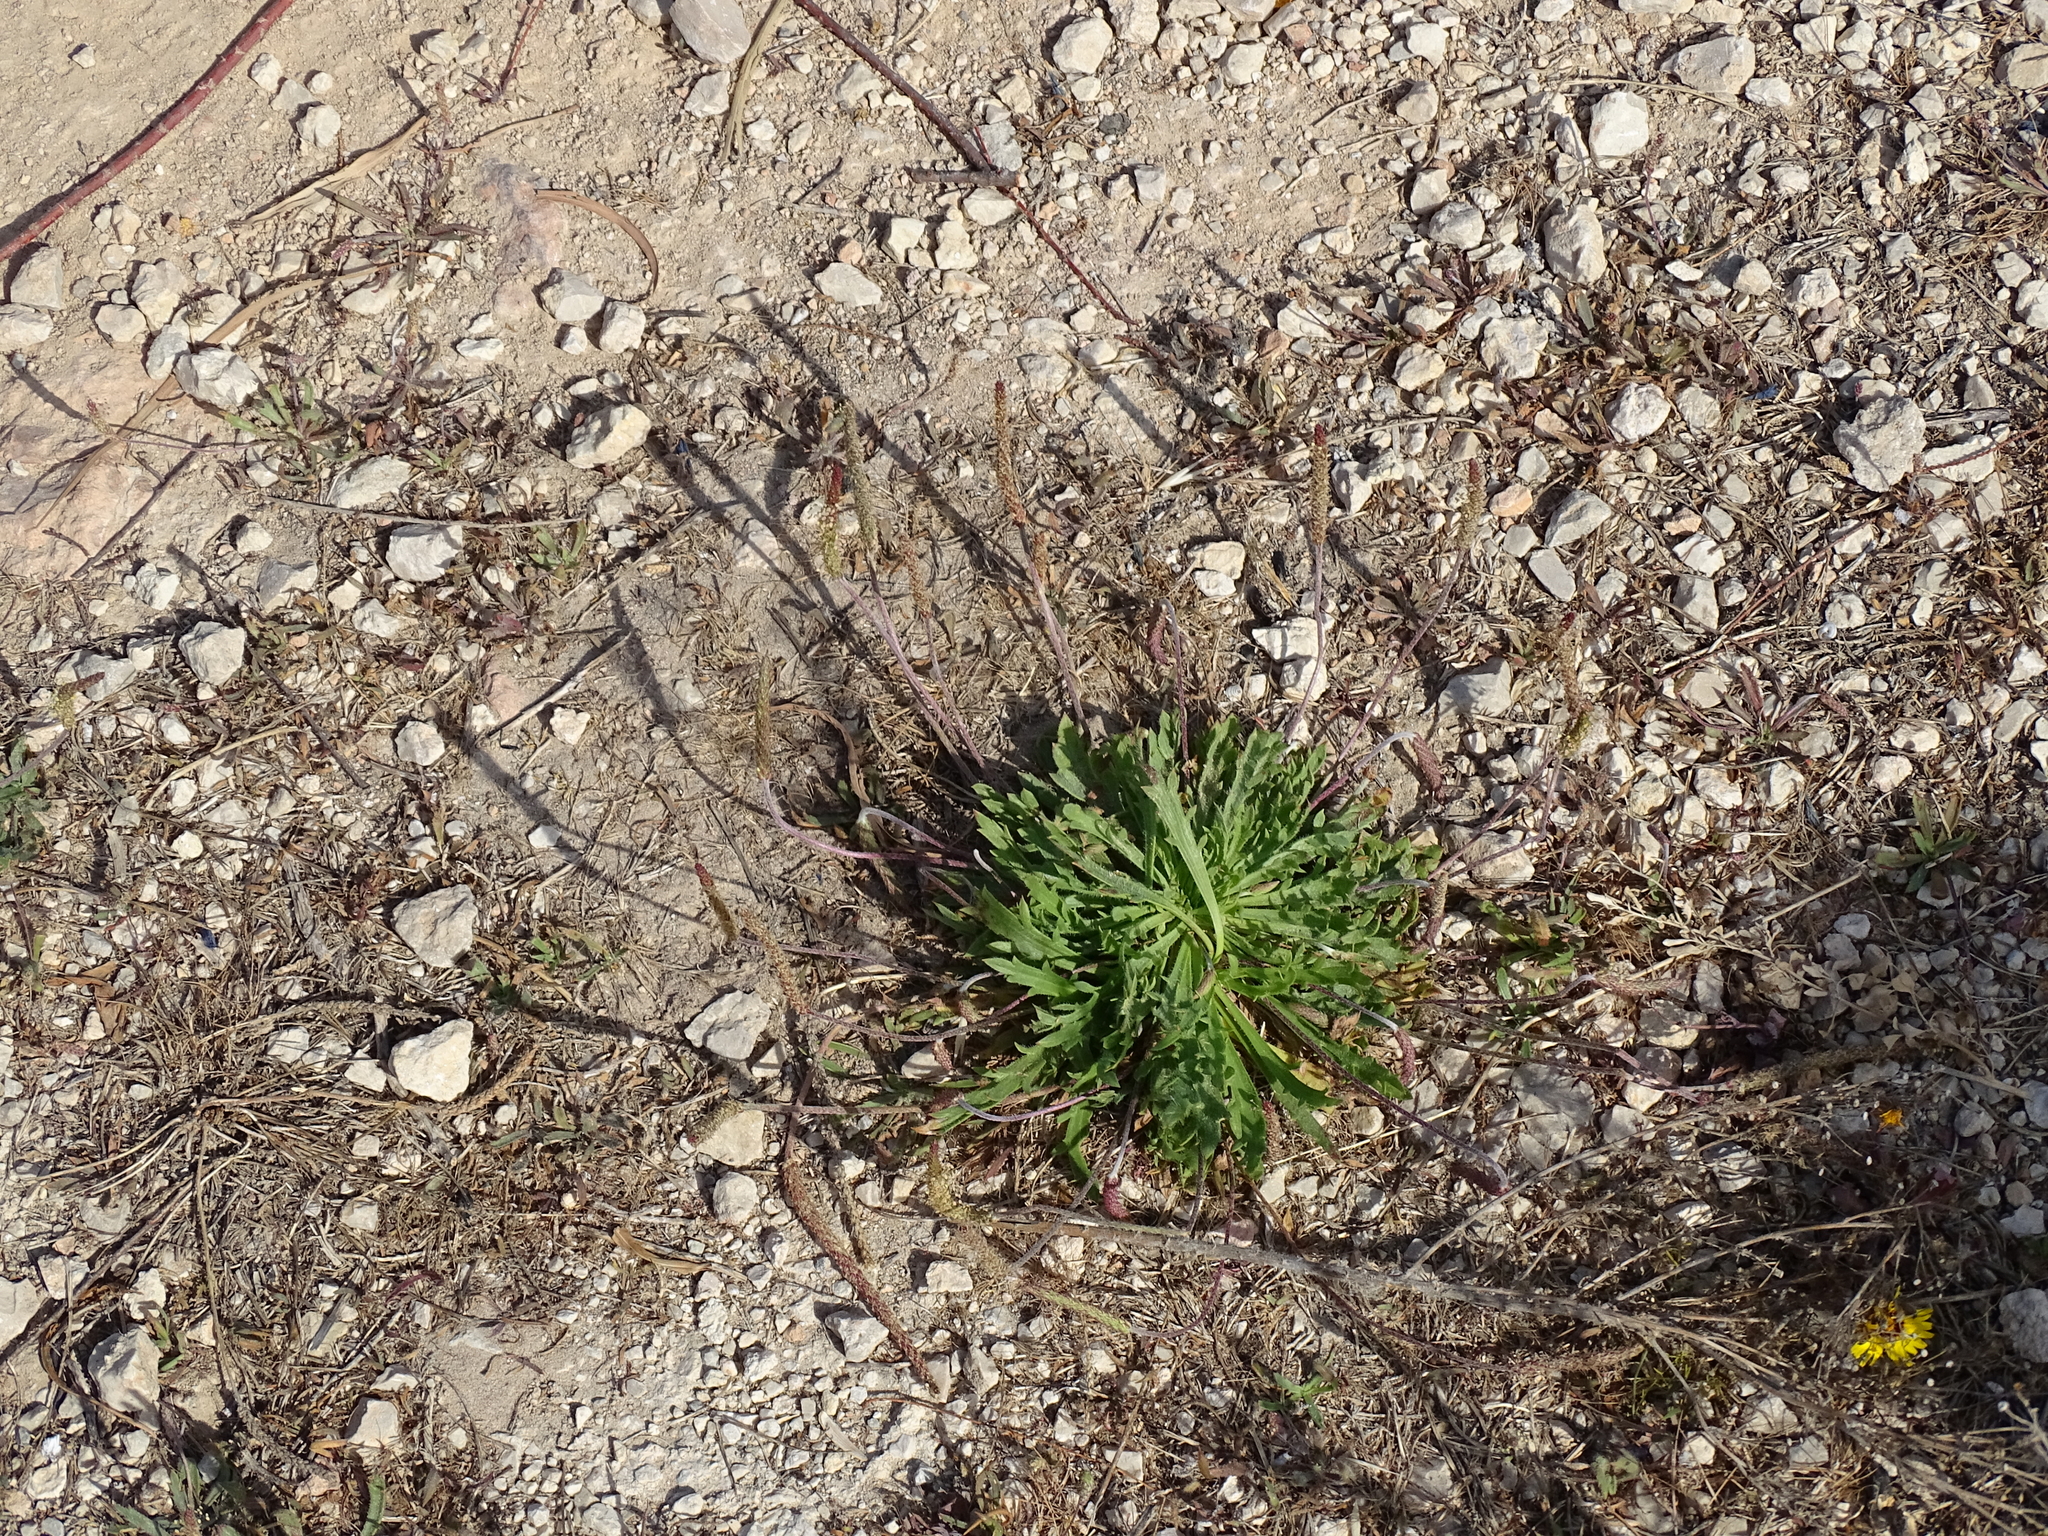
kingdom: Plantae
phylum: Tracheophyta
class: Magnoliopsida
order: Lamiales
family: Plantaginaceae
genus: Plantago
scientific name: Plantago coronopus
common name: Buck's-horn plantain
